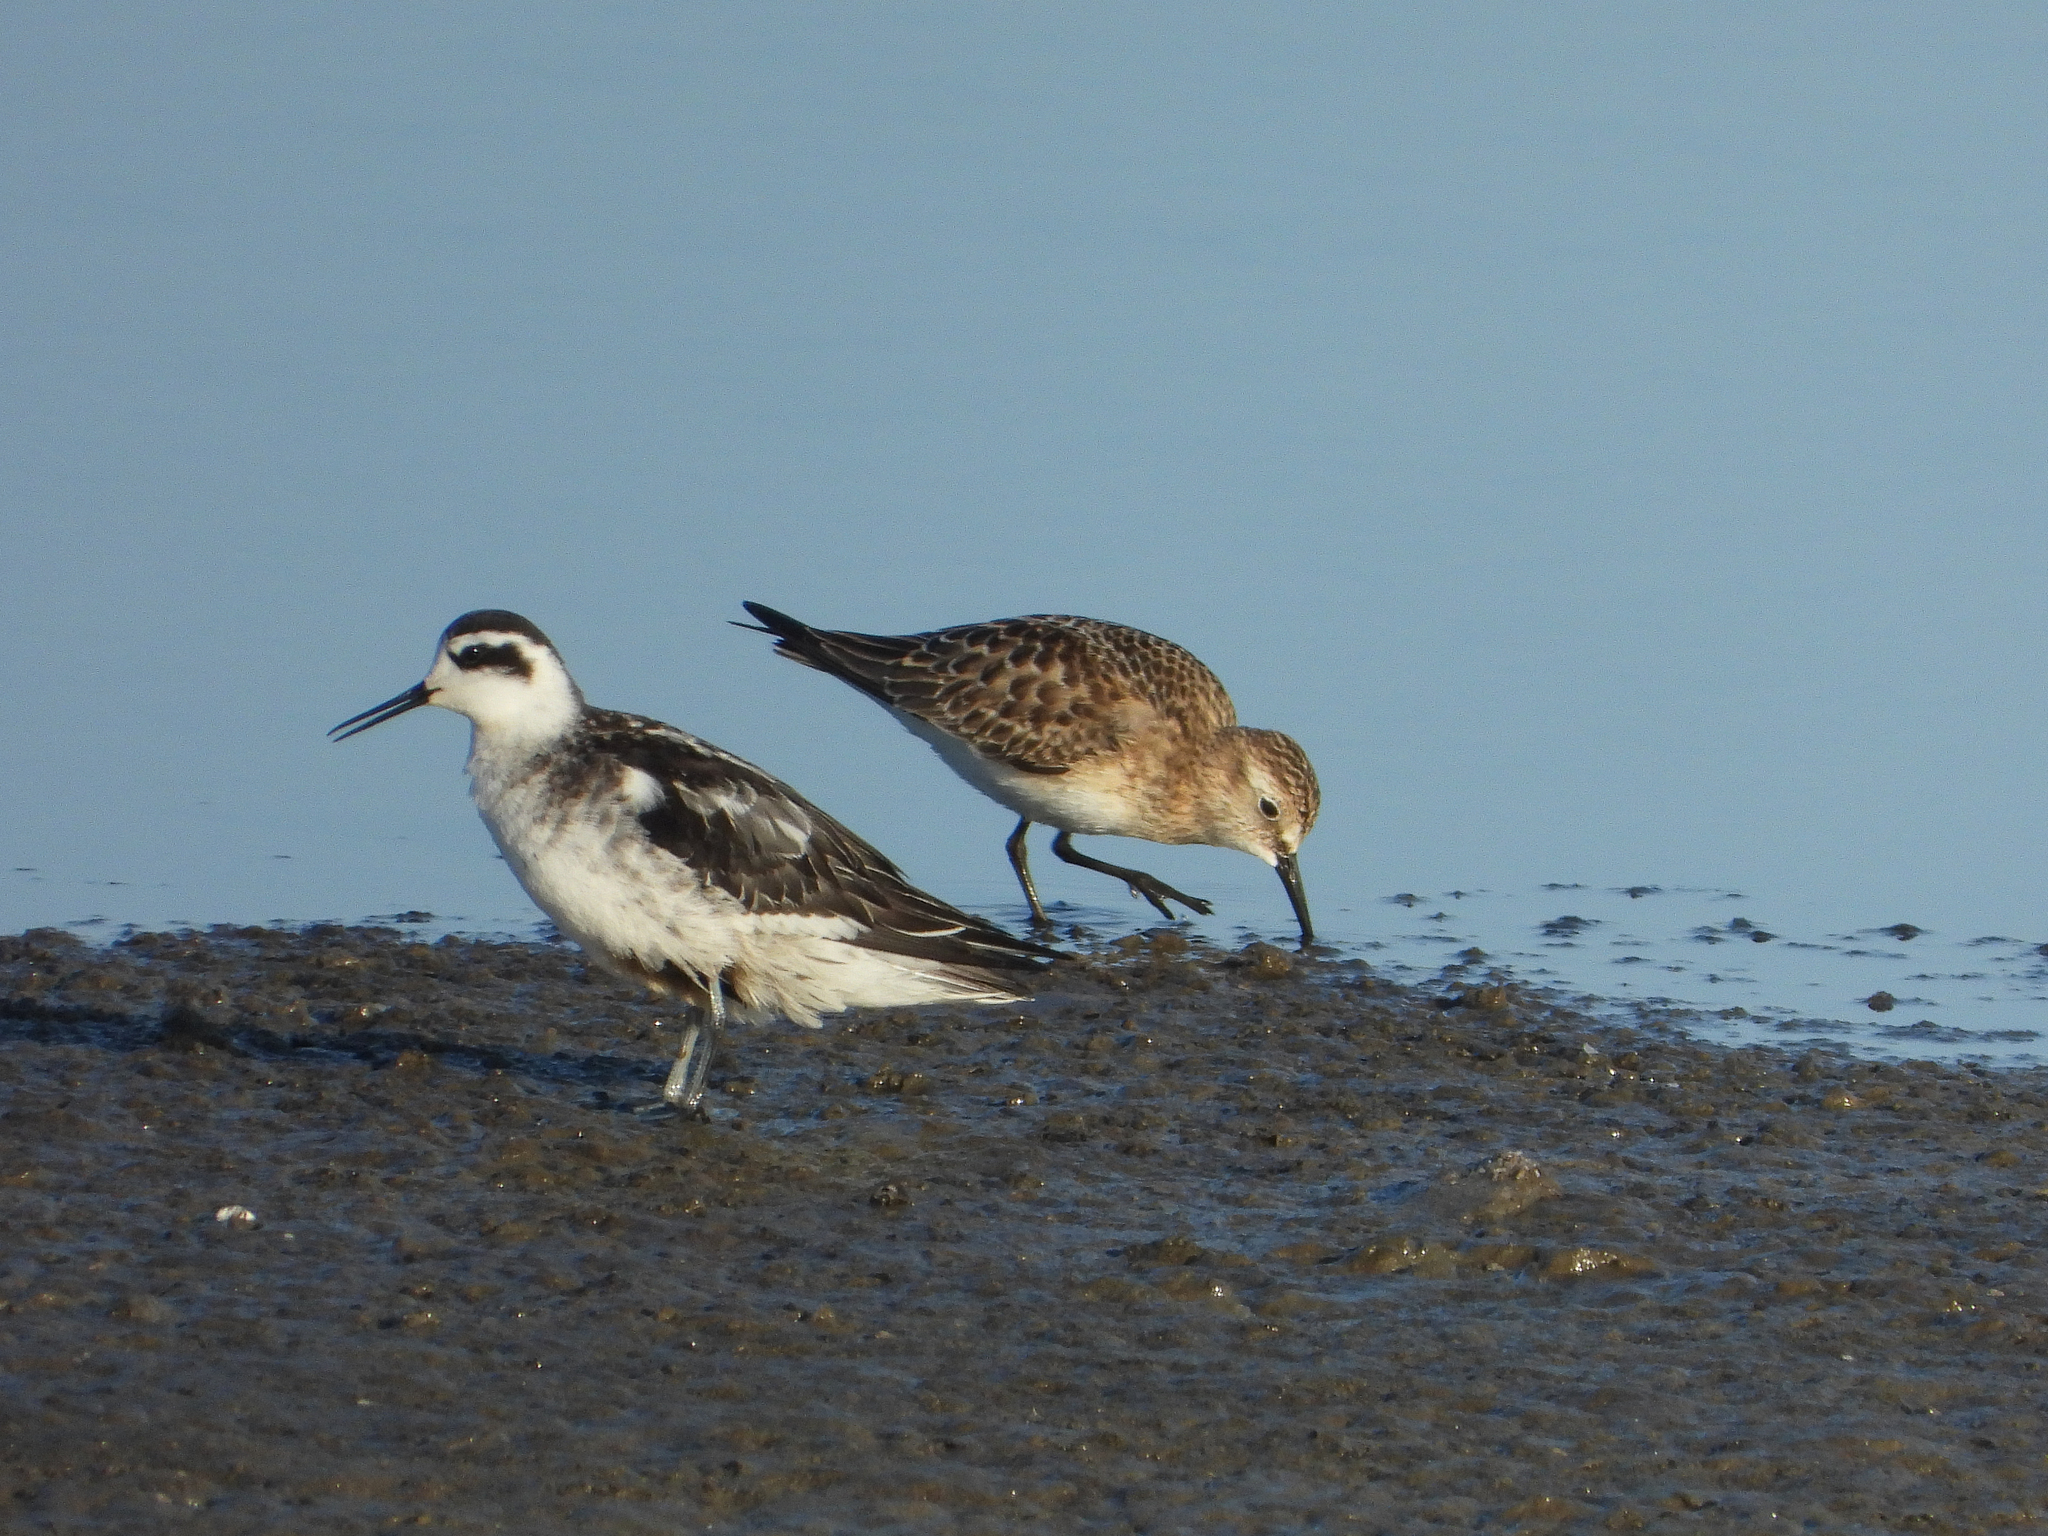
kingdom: Animalia
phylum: Chordata
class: Aves
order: Charadriiformes
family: Scolopacidae
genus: Phalaropus
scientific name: Phalaropus lobatus
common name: Red-necked phalarope
